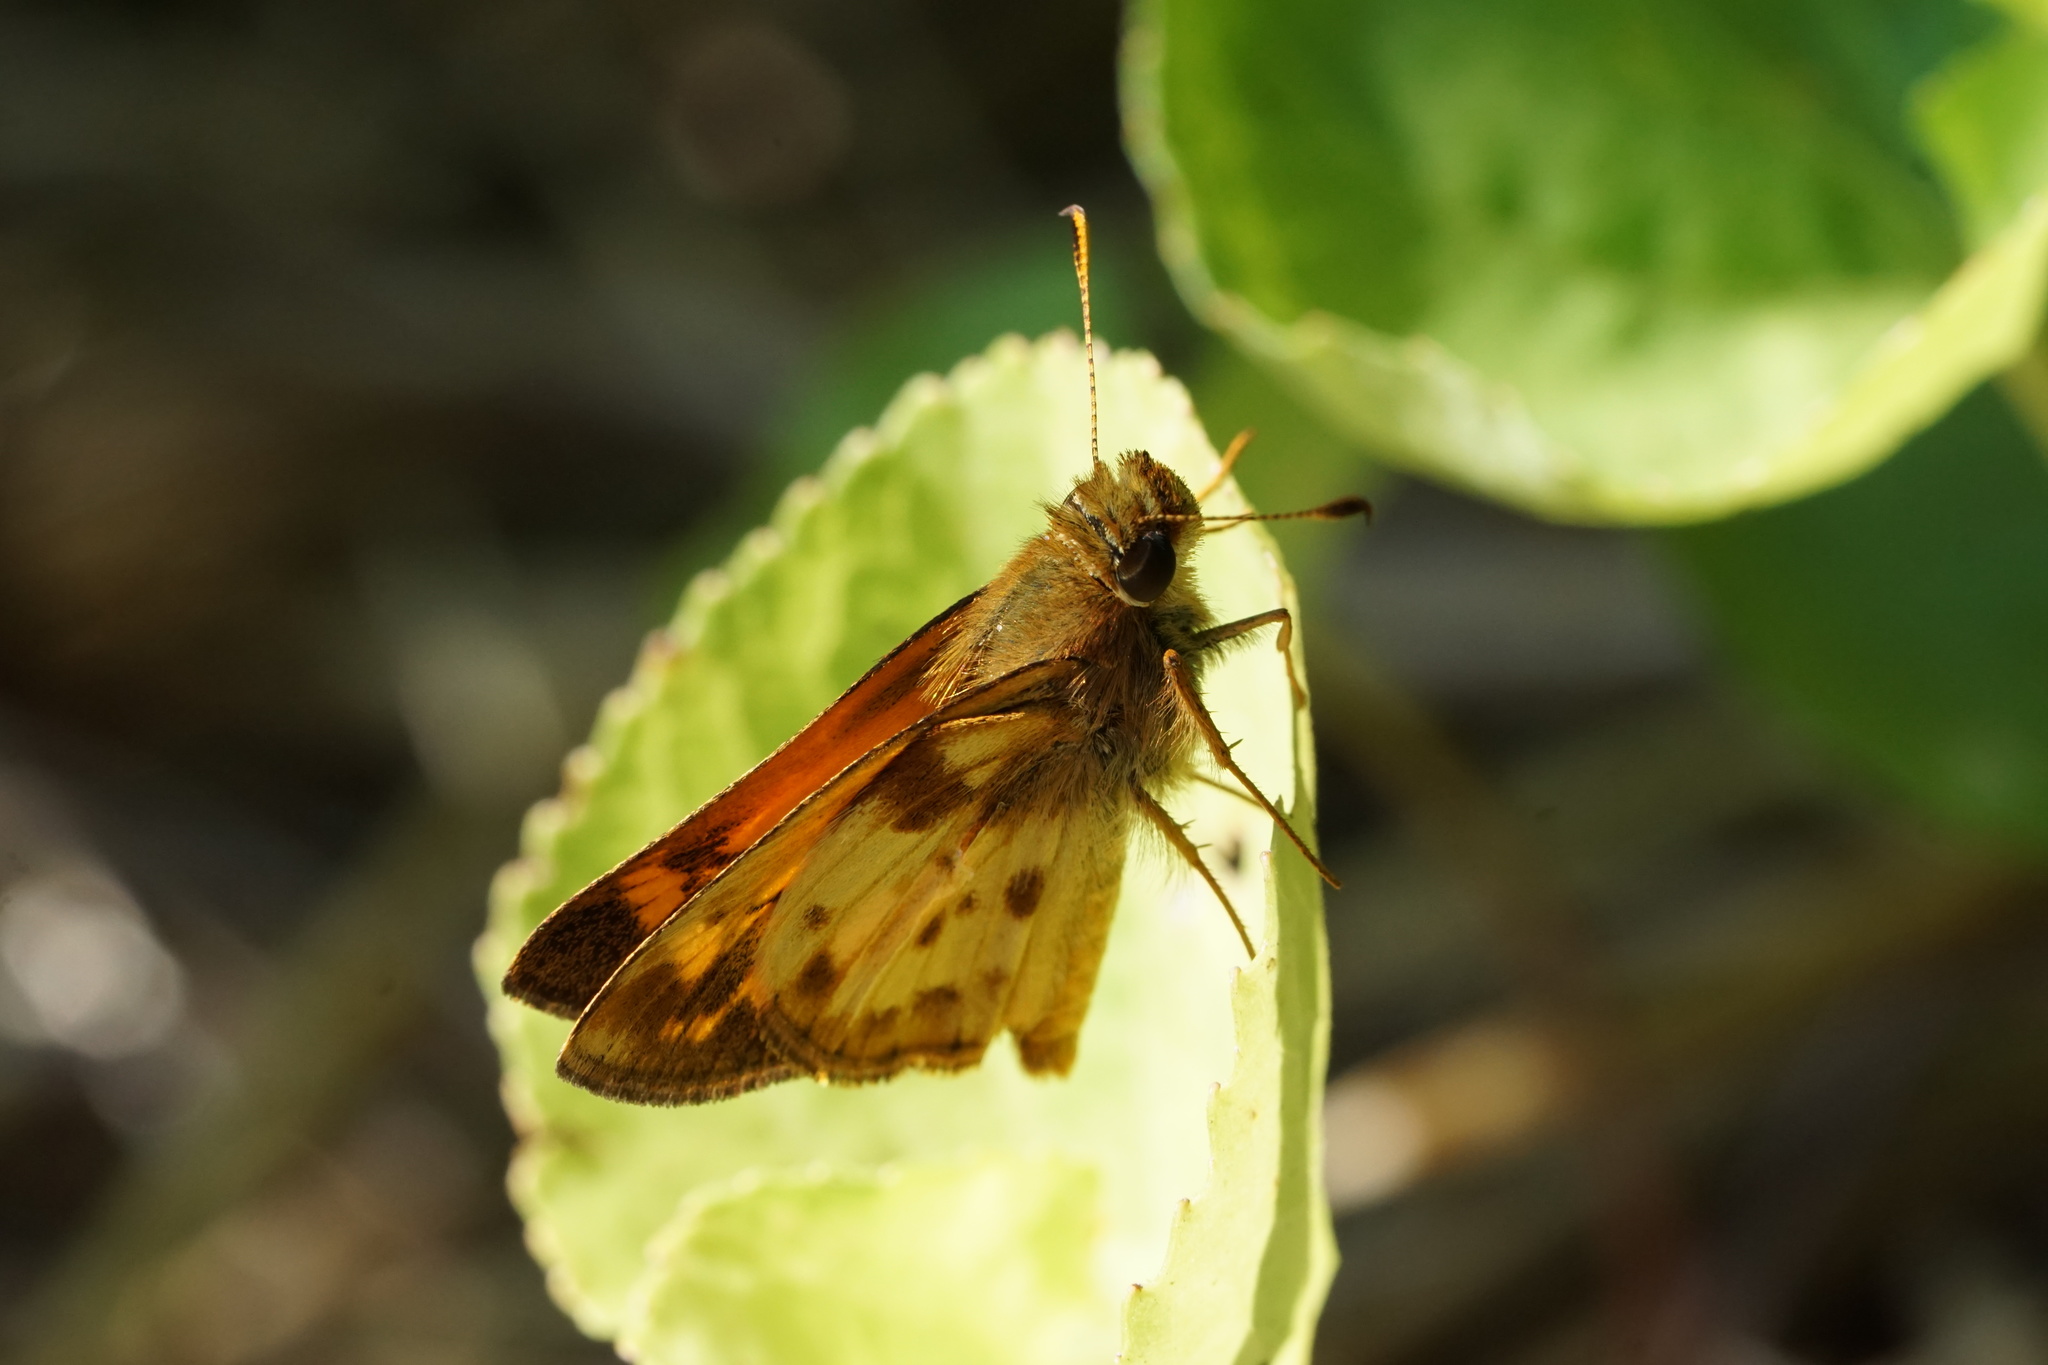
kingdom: Animalia
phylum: Arthropoda
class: Insecta
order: Lepidoptera
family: Hesperiidae
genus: Lon
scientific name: Lon zabulon
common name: Zabulon skipper
